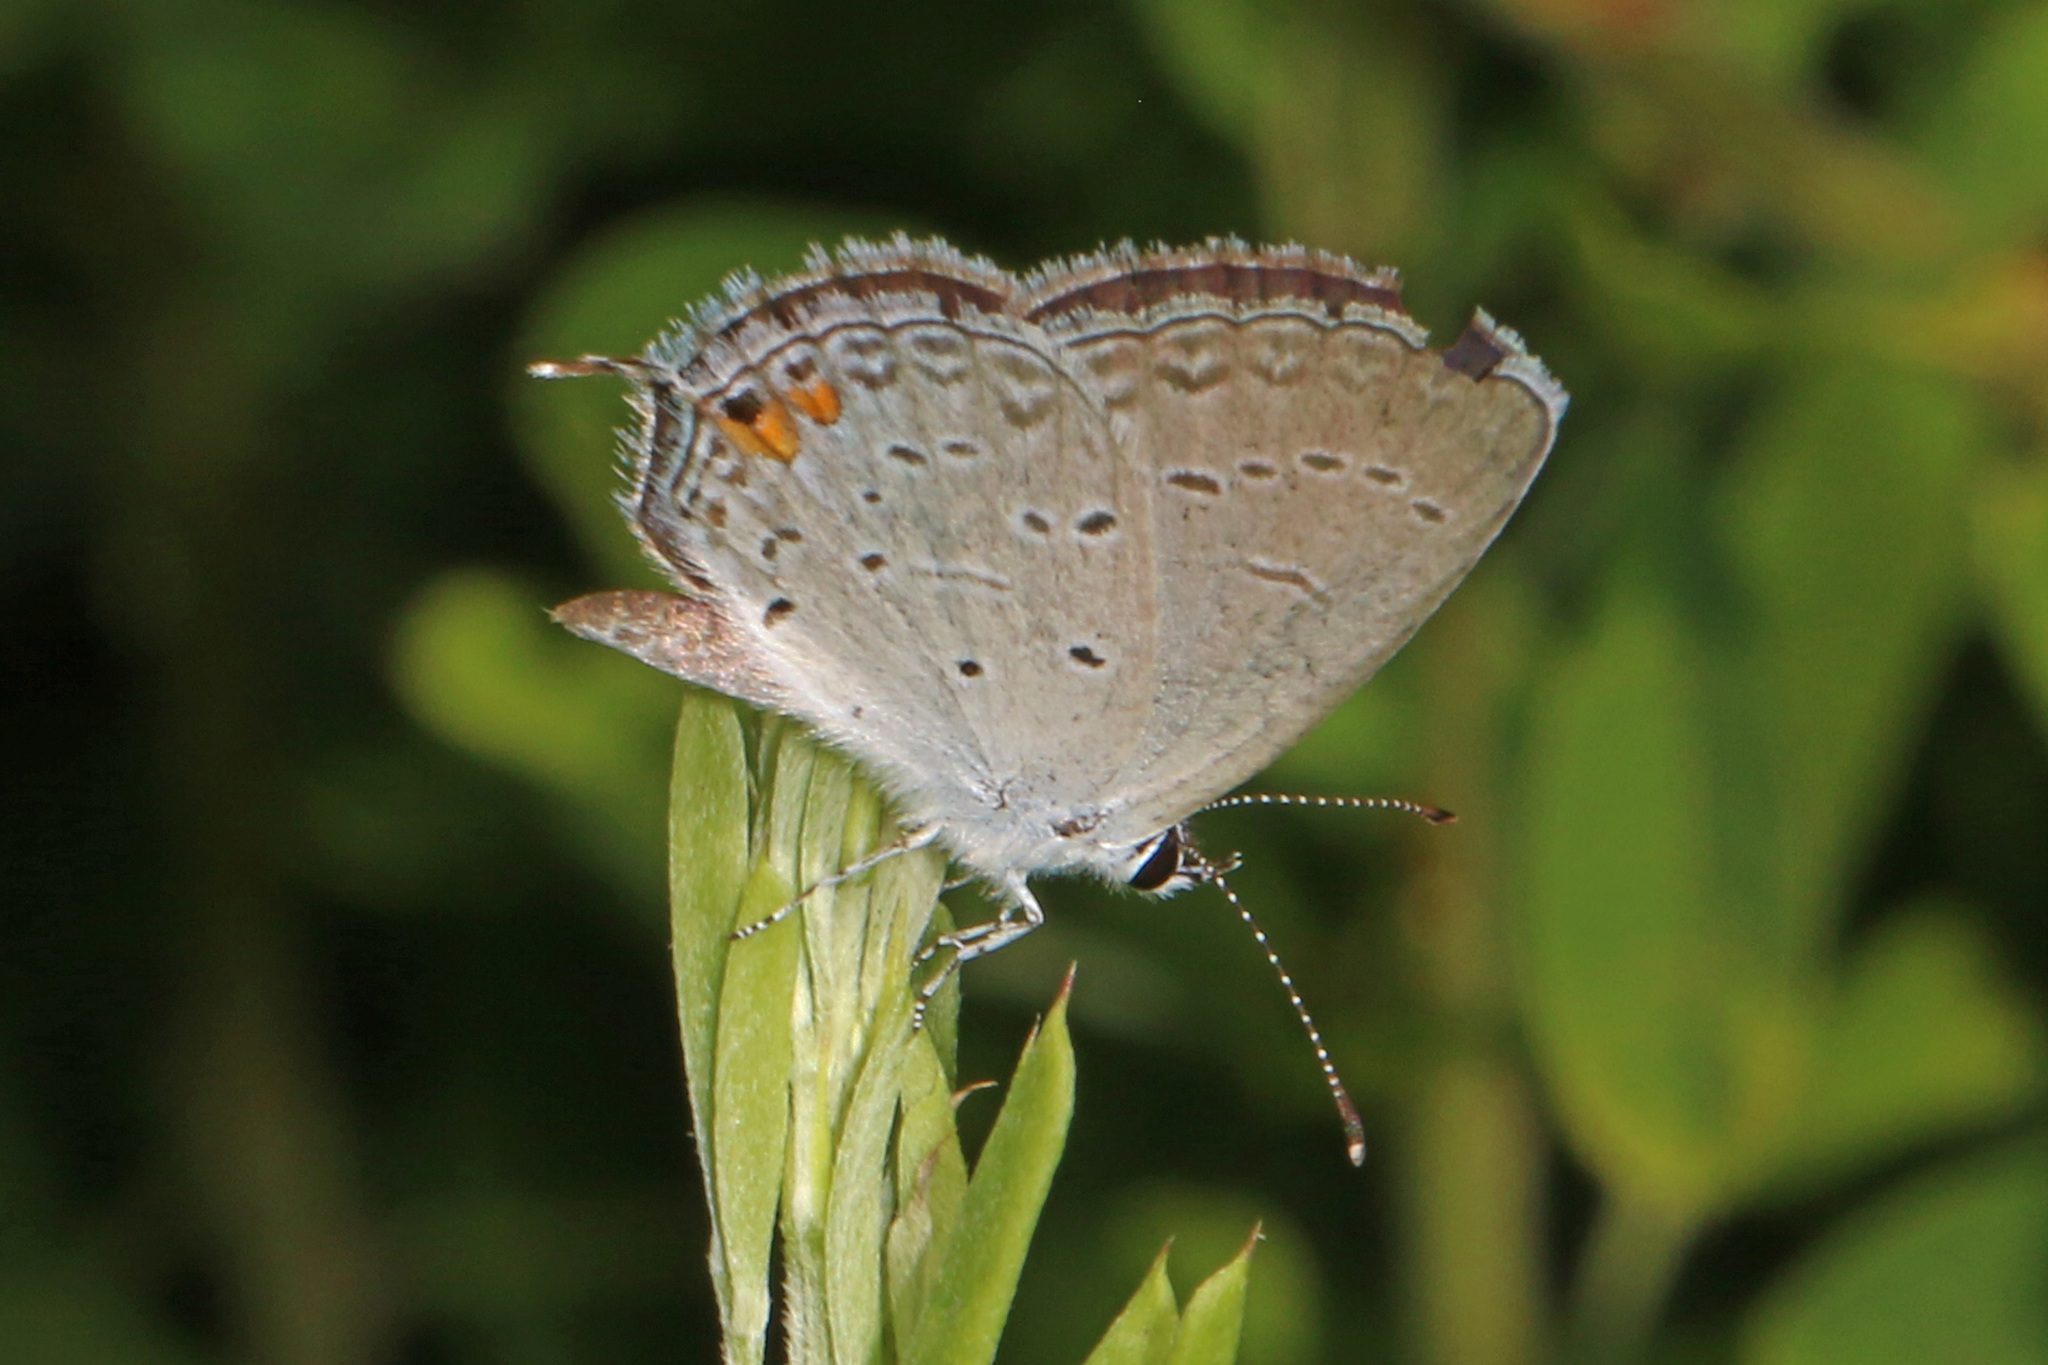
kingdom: Animalia
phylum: Arthropoda
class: Insecta
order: Lepidoptera
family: Lycaenidae
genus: Elkalyce
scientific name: Elkalyce comyntas
